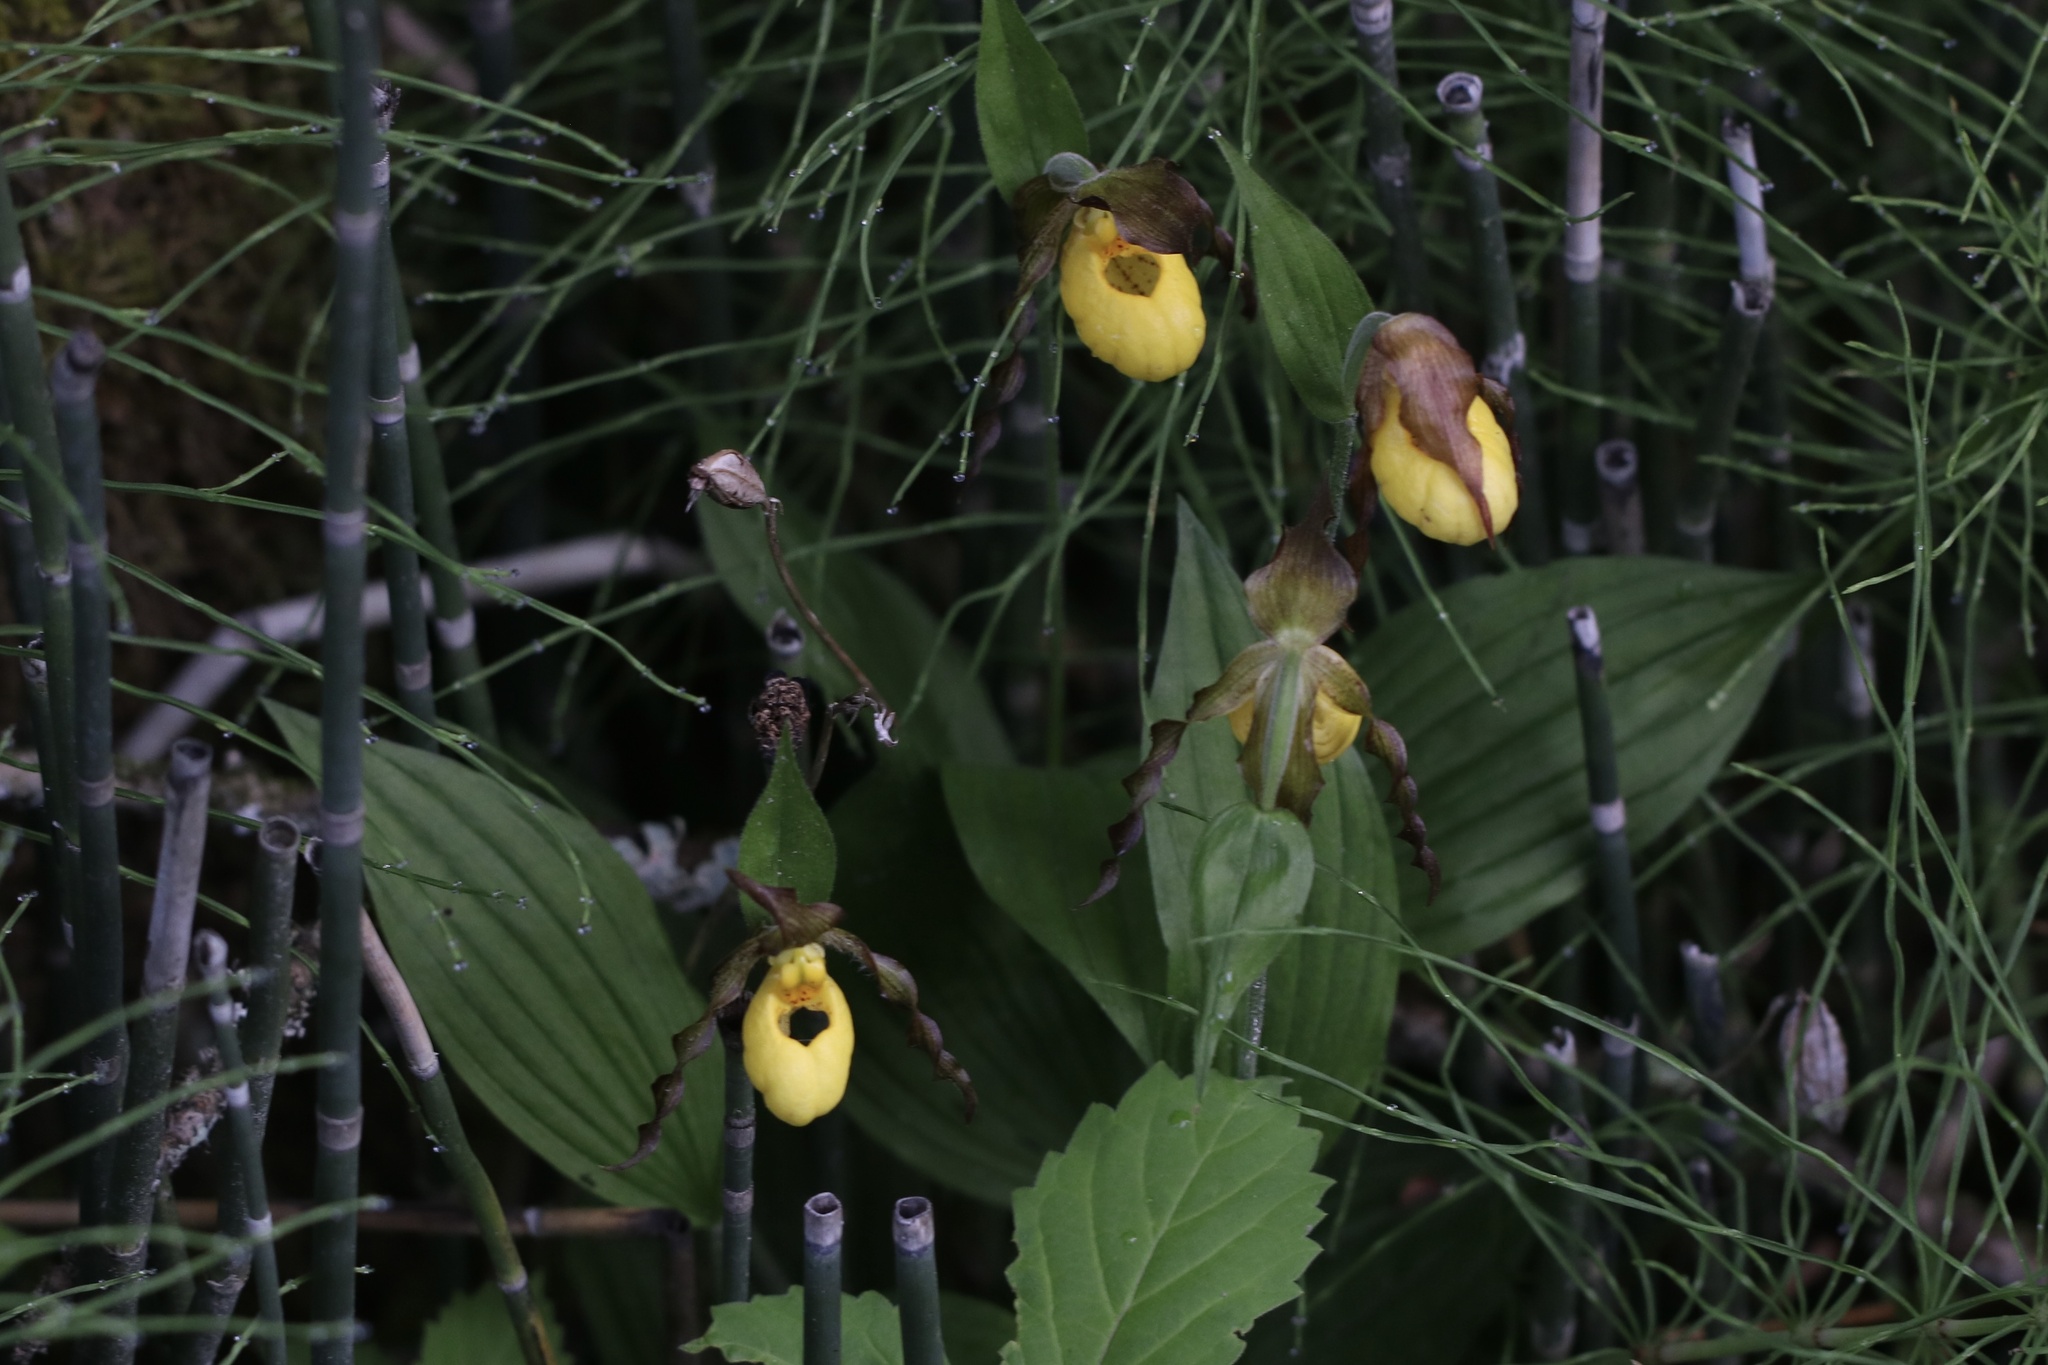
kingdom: Plantae
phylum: Tracheophyta
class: Liliopsida
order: Asparagales
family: Orchidaceae
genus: Cypripedium
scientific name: Cypripedium parviflorum
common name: American yellow lady's-slipper
